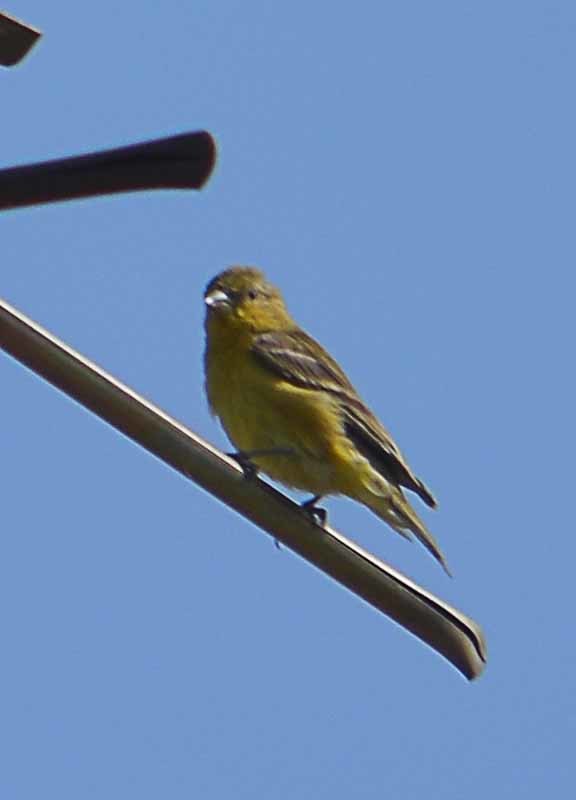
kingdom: Animalia
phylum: Chordata
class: Aves
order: Passeriformes
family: Fringillidae
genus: Spinus
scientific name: Spinus psaltria
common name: Lesser goldfinch
